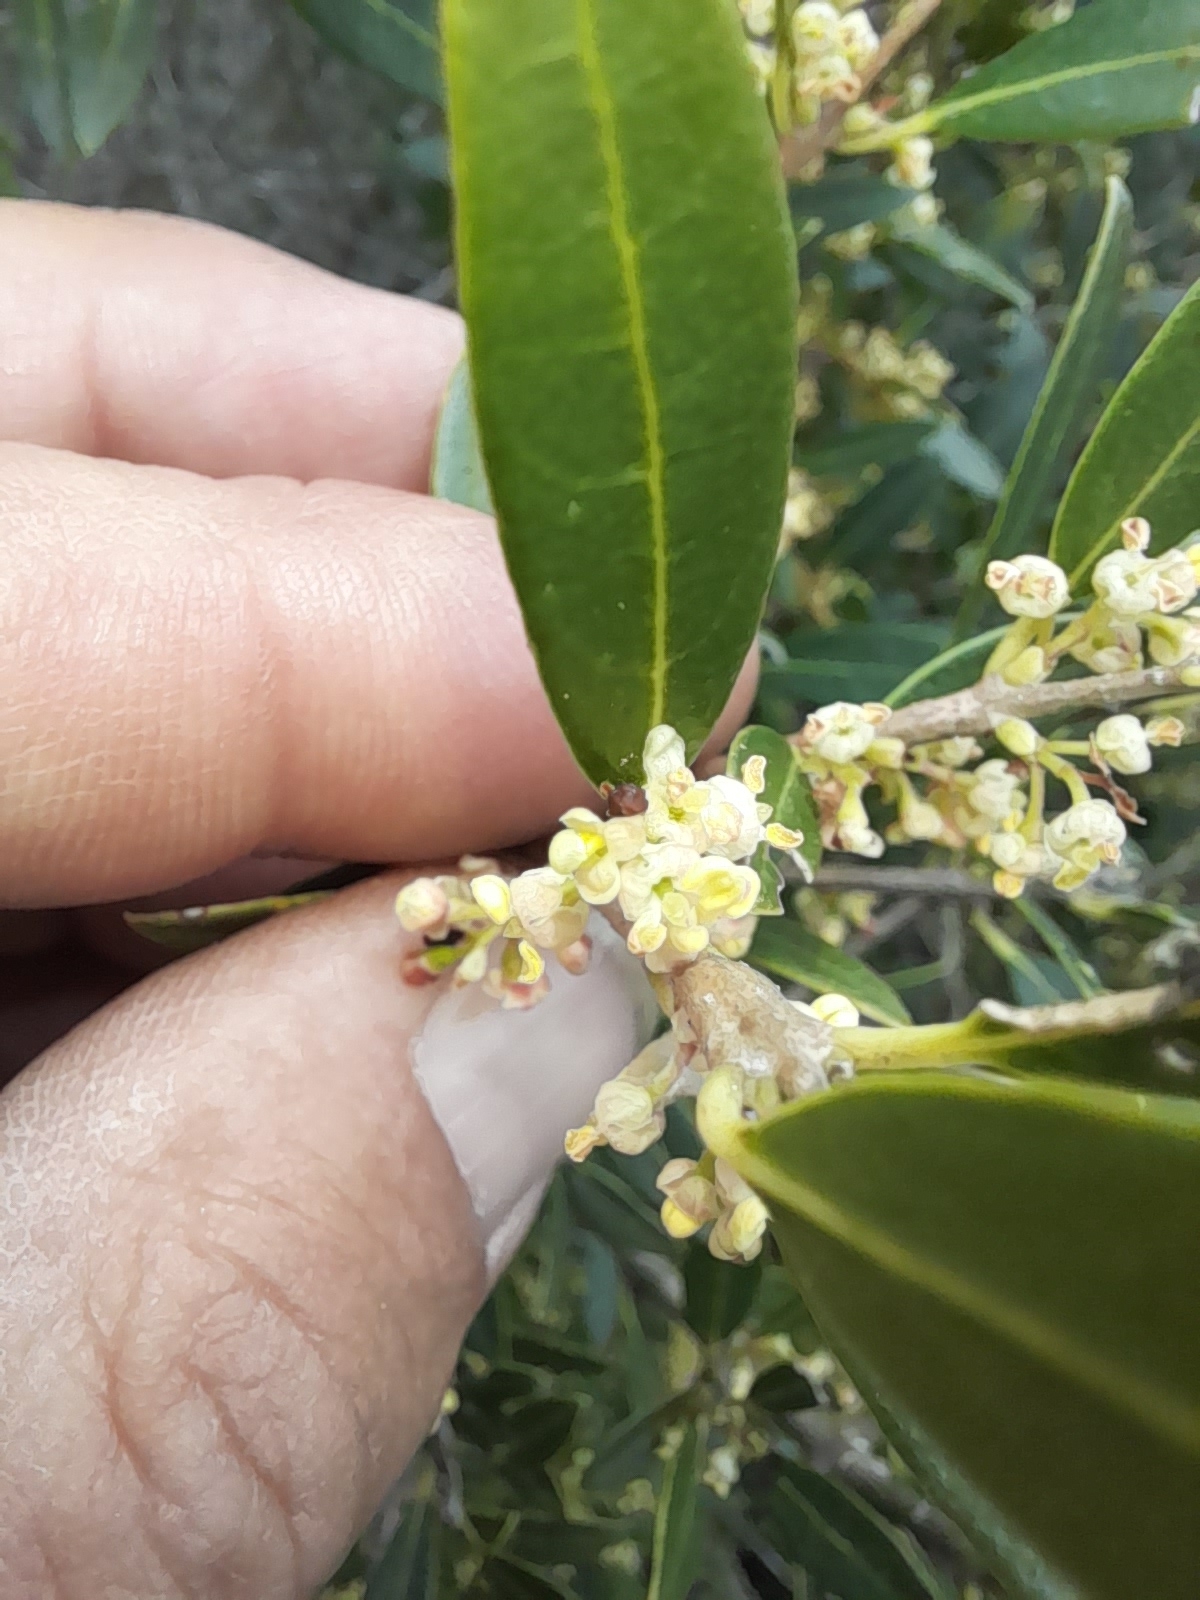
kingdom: Plantae
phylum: Tracheophyta
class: Magnoliopsida
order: Lamiales
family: Oleaceae
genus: Phillyrea
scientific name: Phillyrea angustifolia
